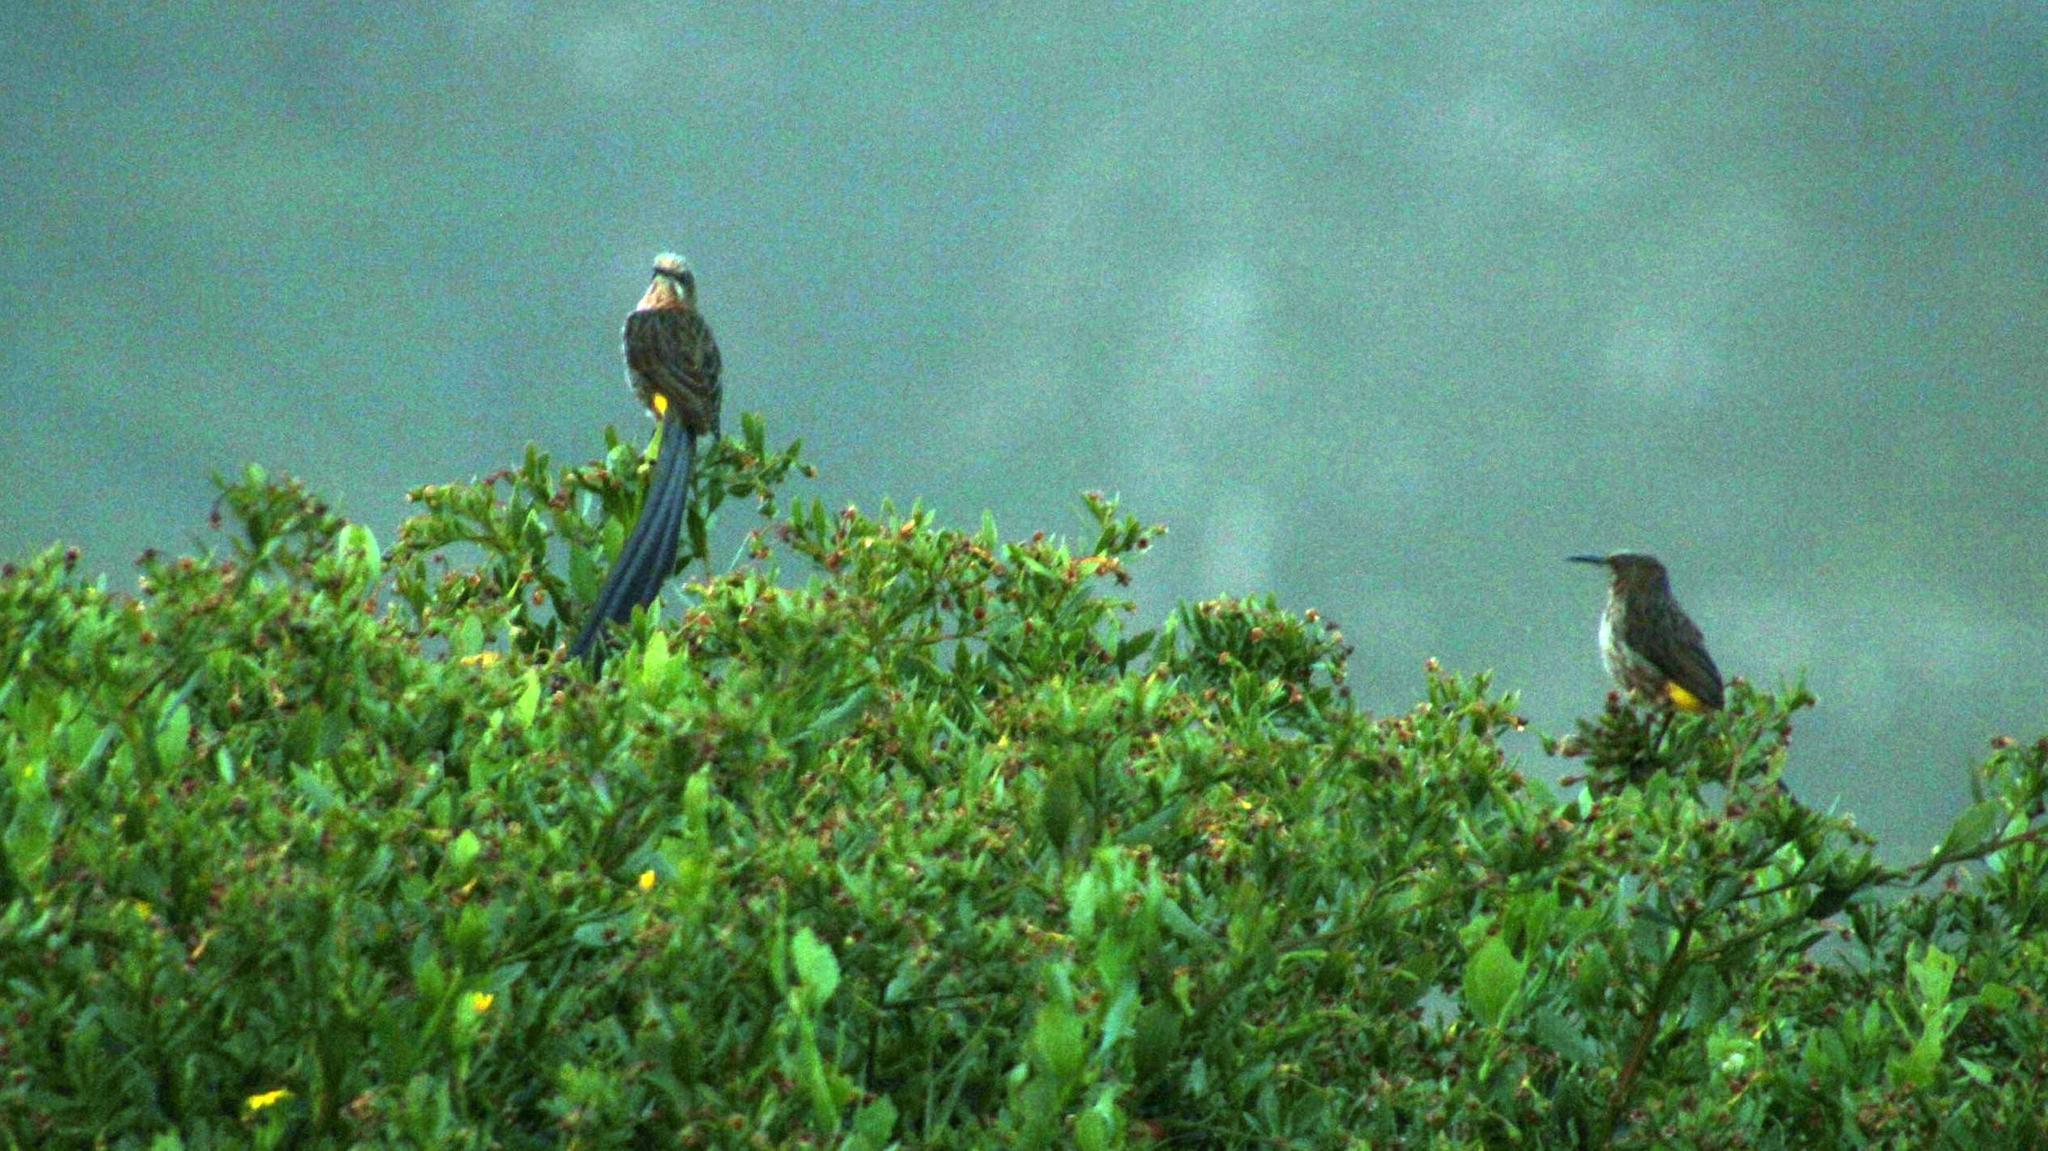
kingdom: Animalia
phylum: Chordata
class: Aves
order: Passeriformes
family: Promeropidae
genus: Promerops
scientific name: Promerops cafer
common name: Cape sugarbird
